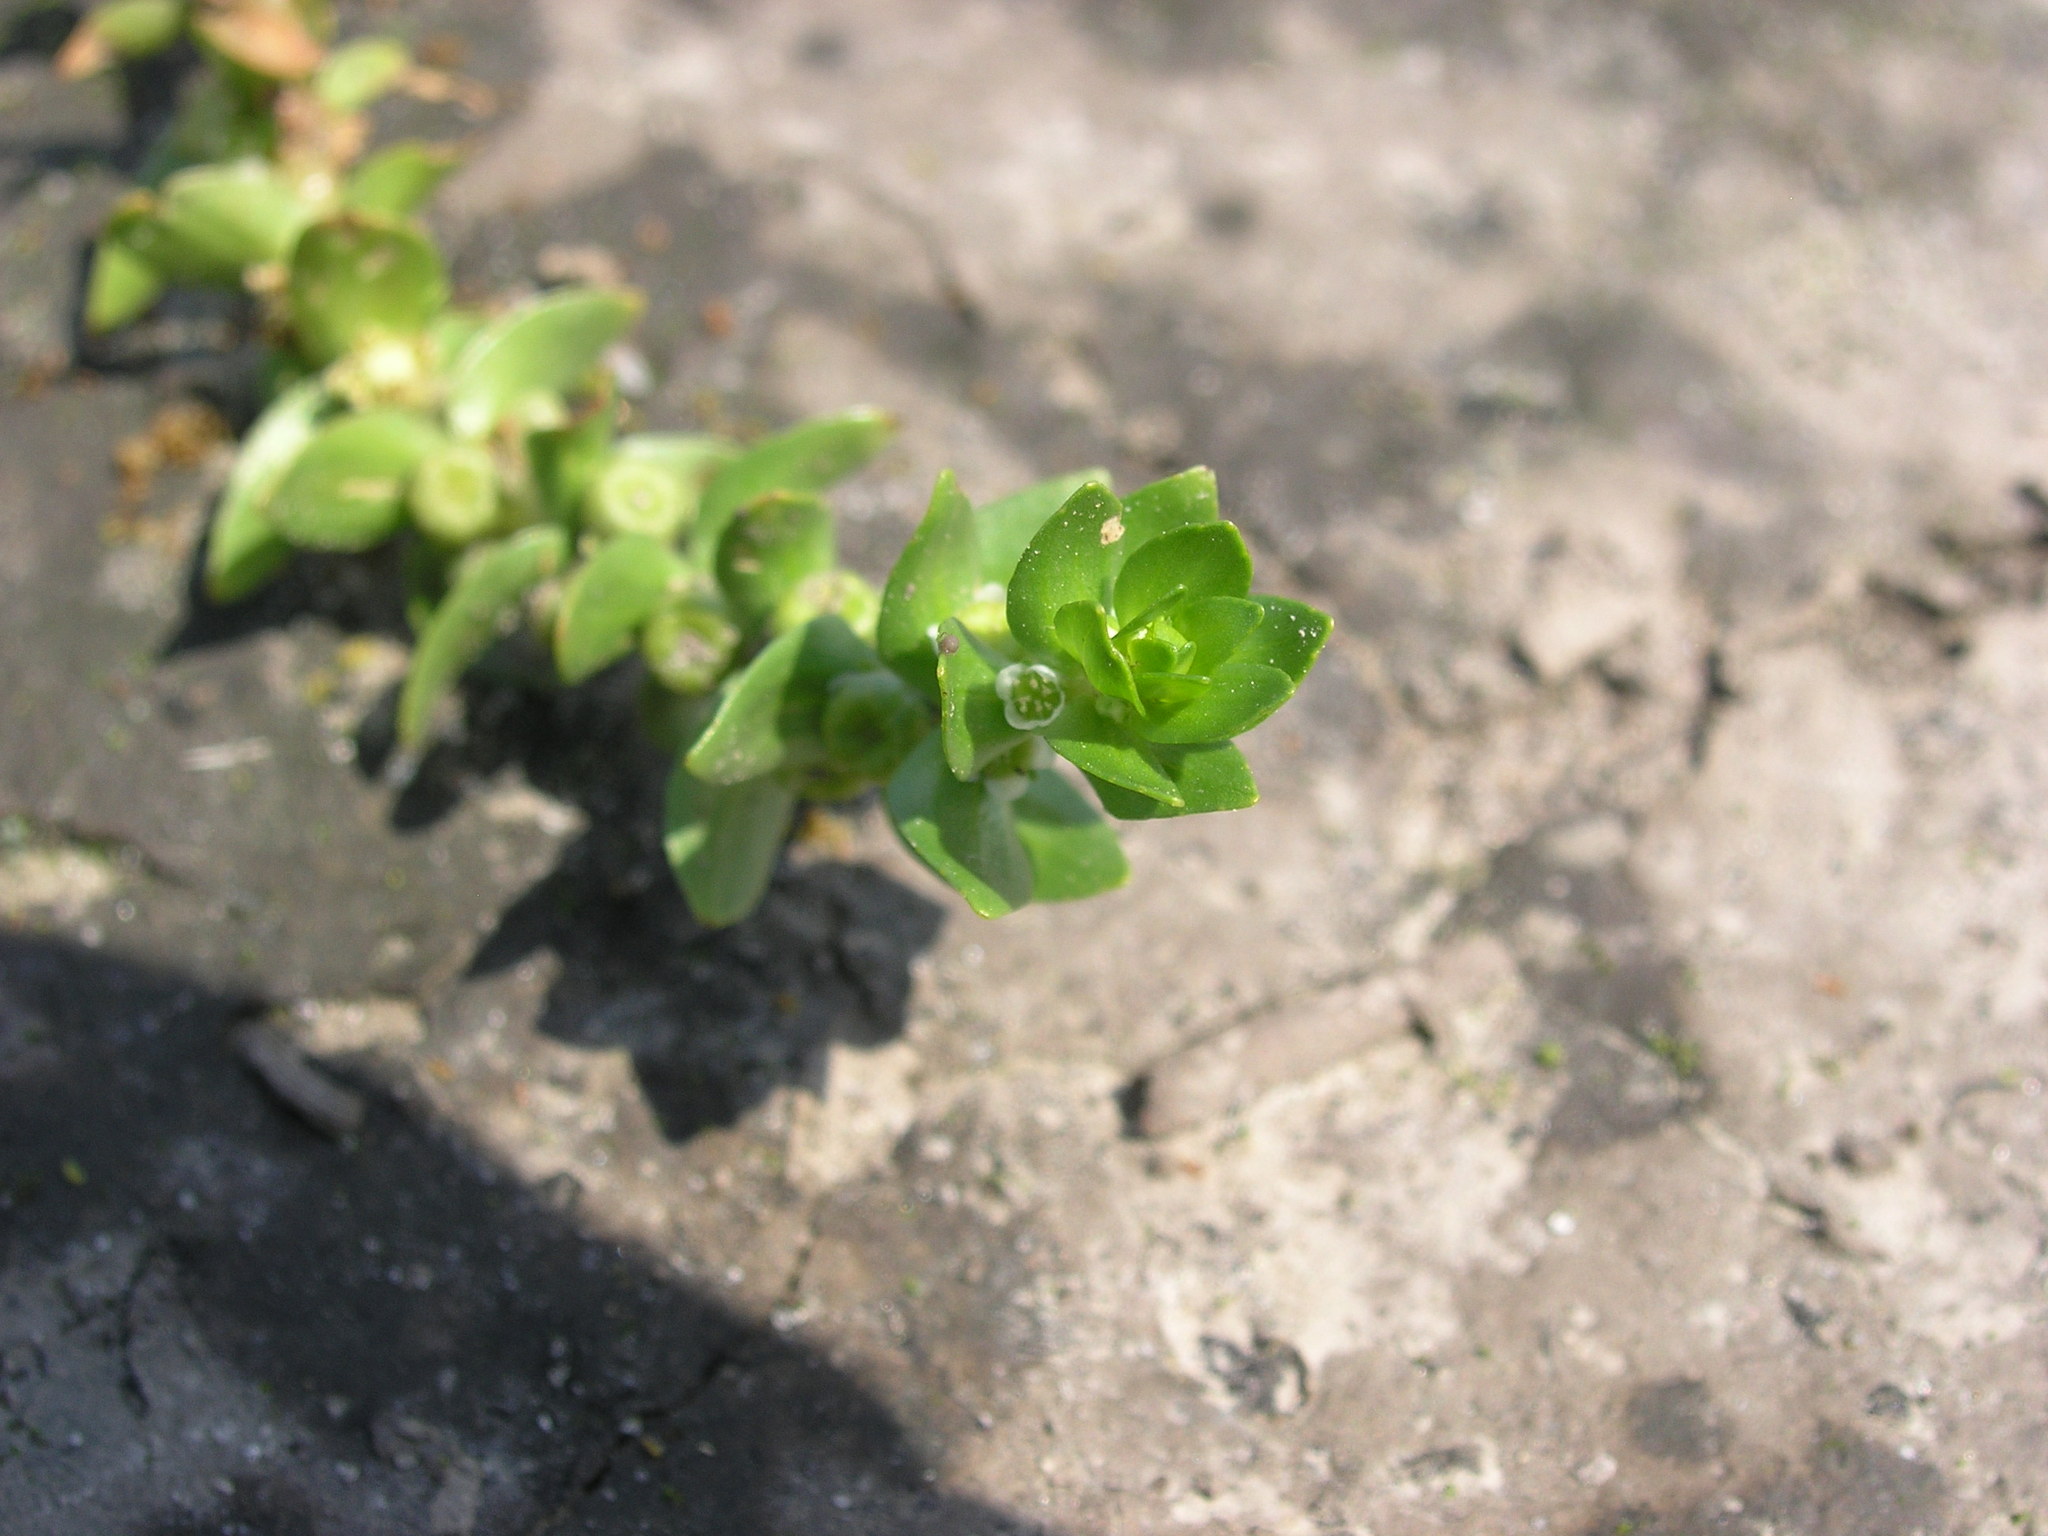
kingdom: Plantae
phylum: Tracheophyta
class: Magnoliopsida
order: Malpighiales
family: Elatinaceae
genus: Elatine
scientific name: Elatine alsinastrum
